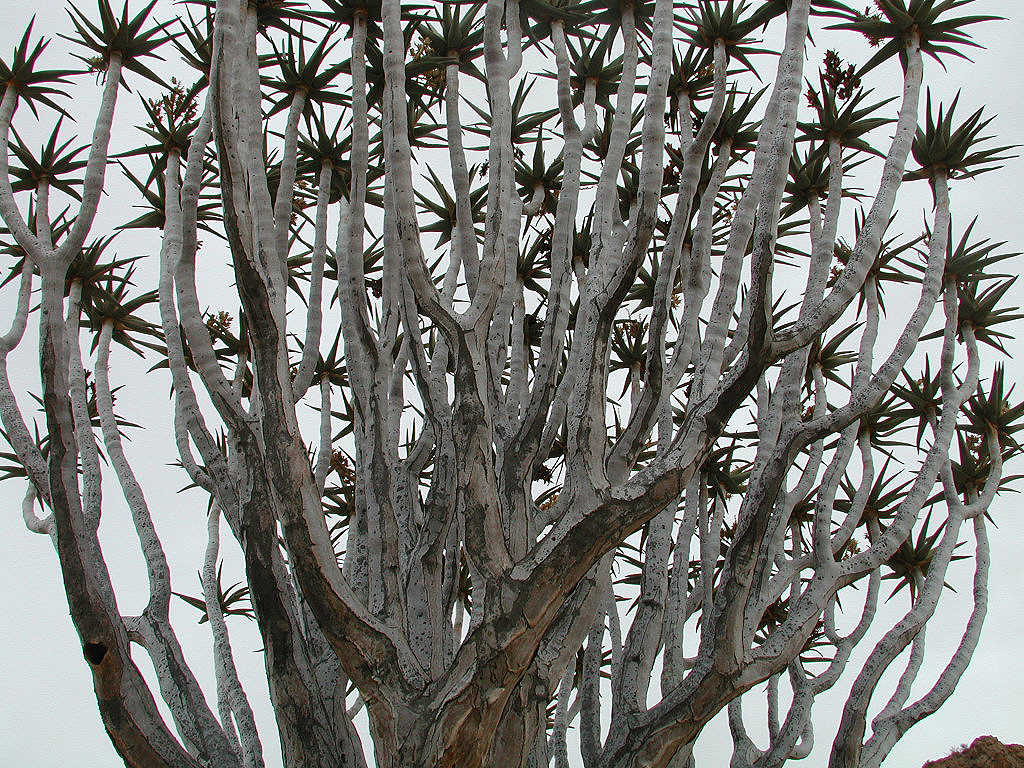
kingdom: Plantae
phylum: Tracheophyta
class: Liliopsida
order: Asparagales
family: Asphodelaceae
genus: Aloidendron
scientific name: Aloidendron dichotomum
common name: Quiver tree
